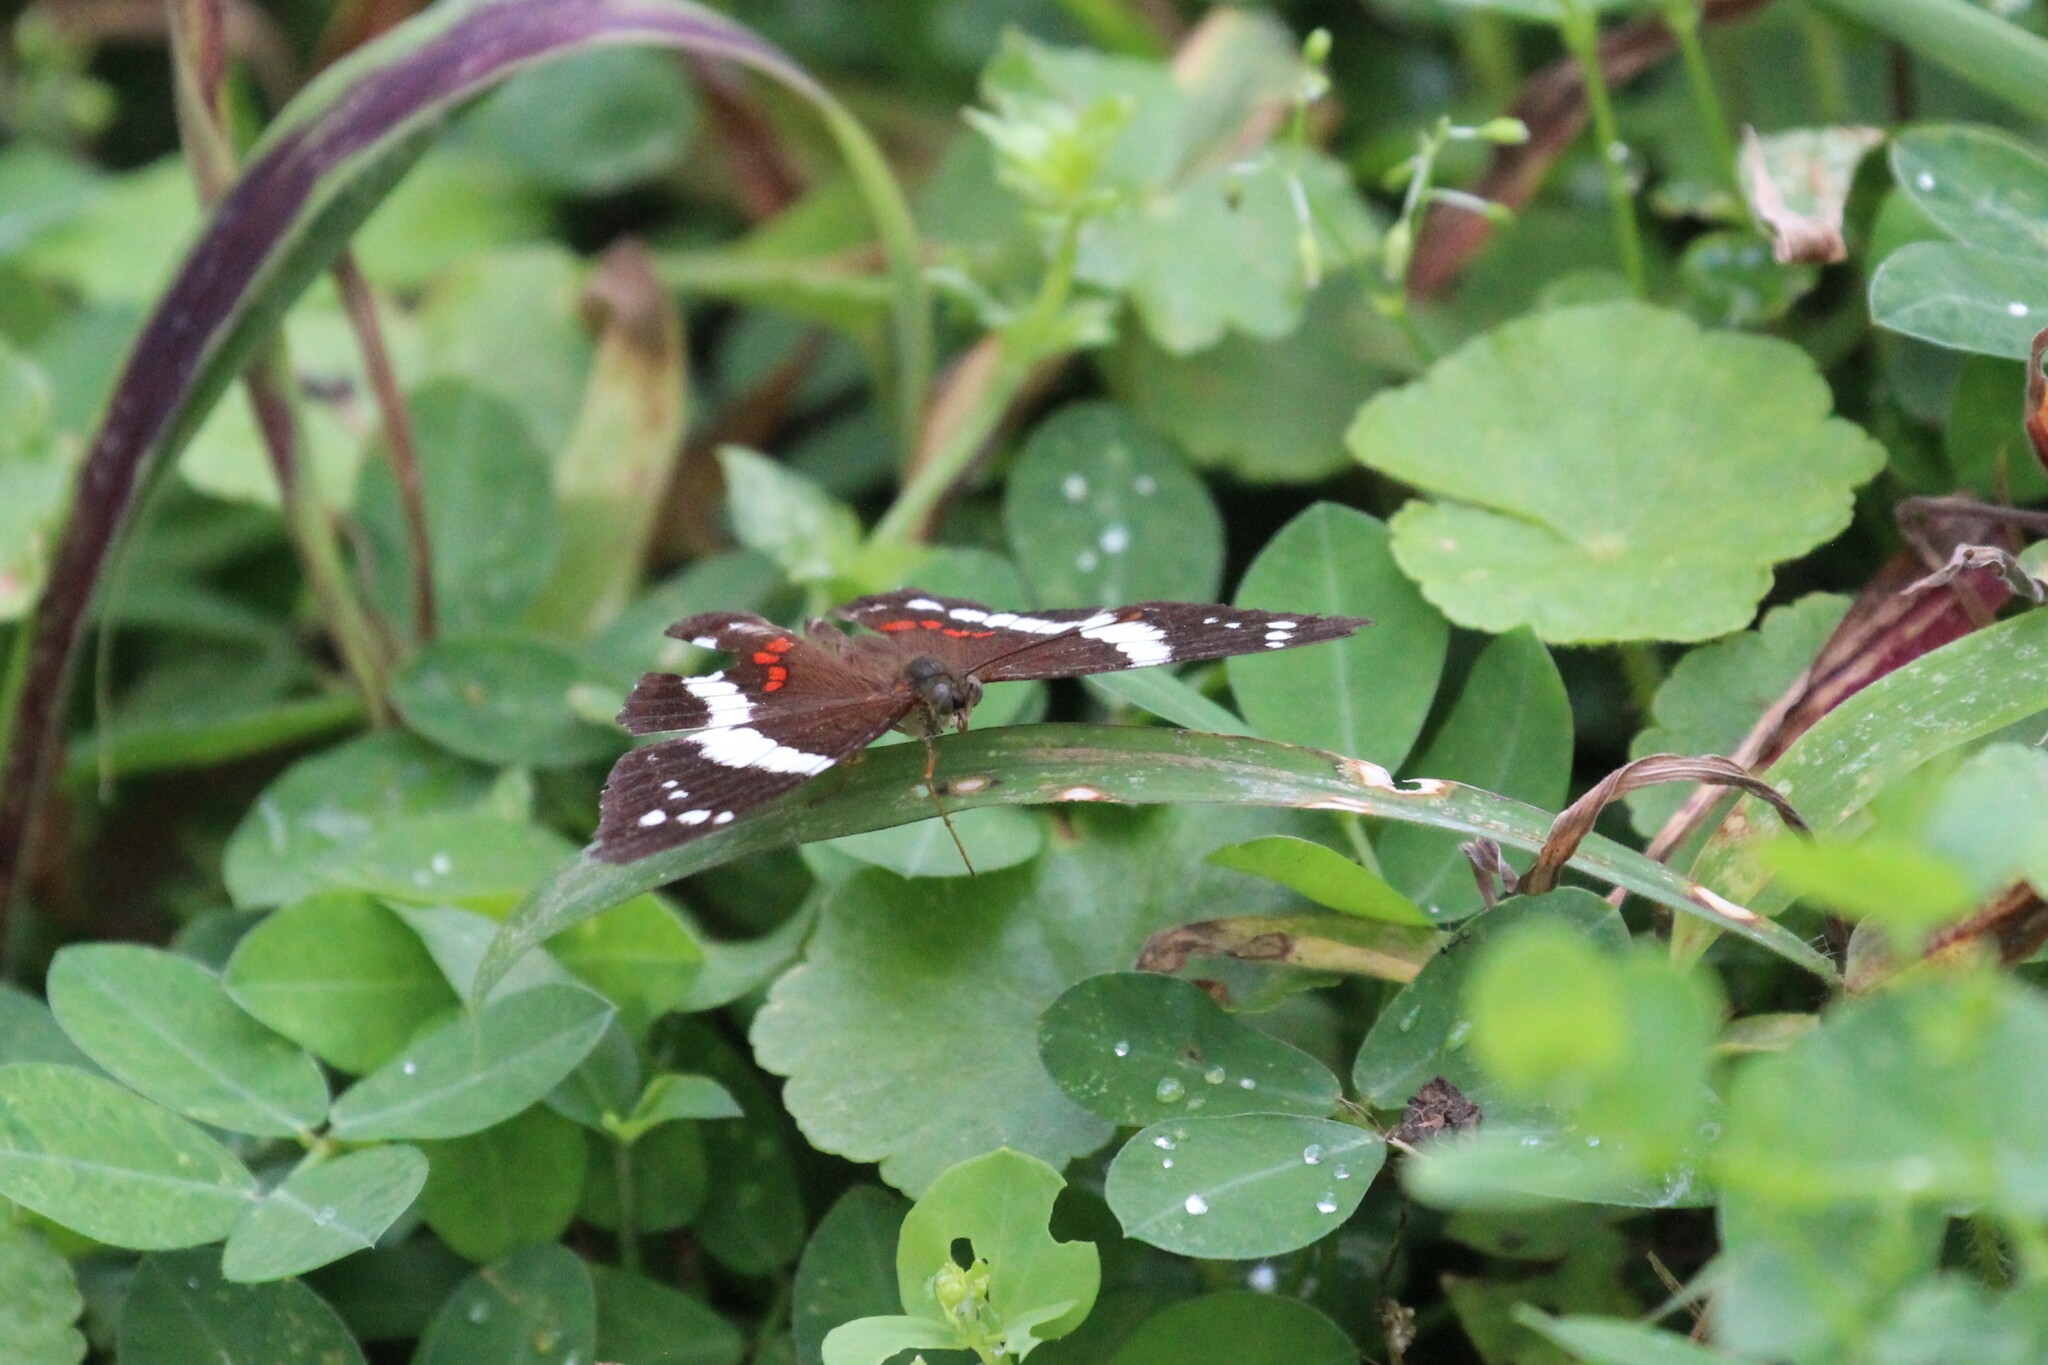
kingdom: Animalia
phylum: Arthropoda
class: Insecta
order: Lepidoptera
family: Nymphalidae
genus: Anartia
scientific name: Anartia fatima
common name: Banded peacock
